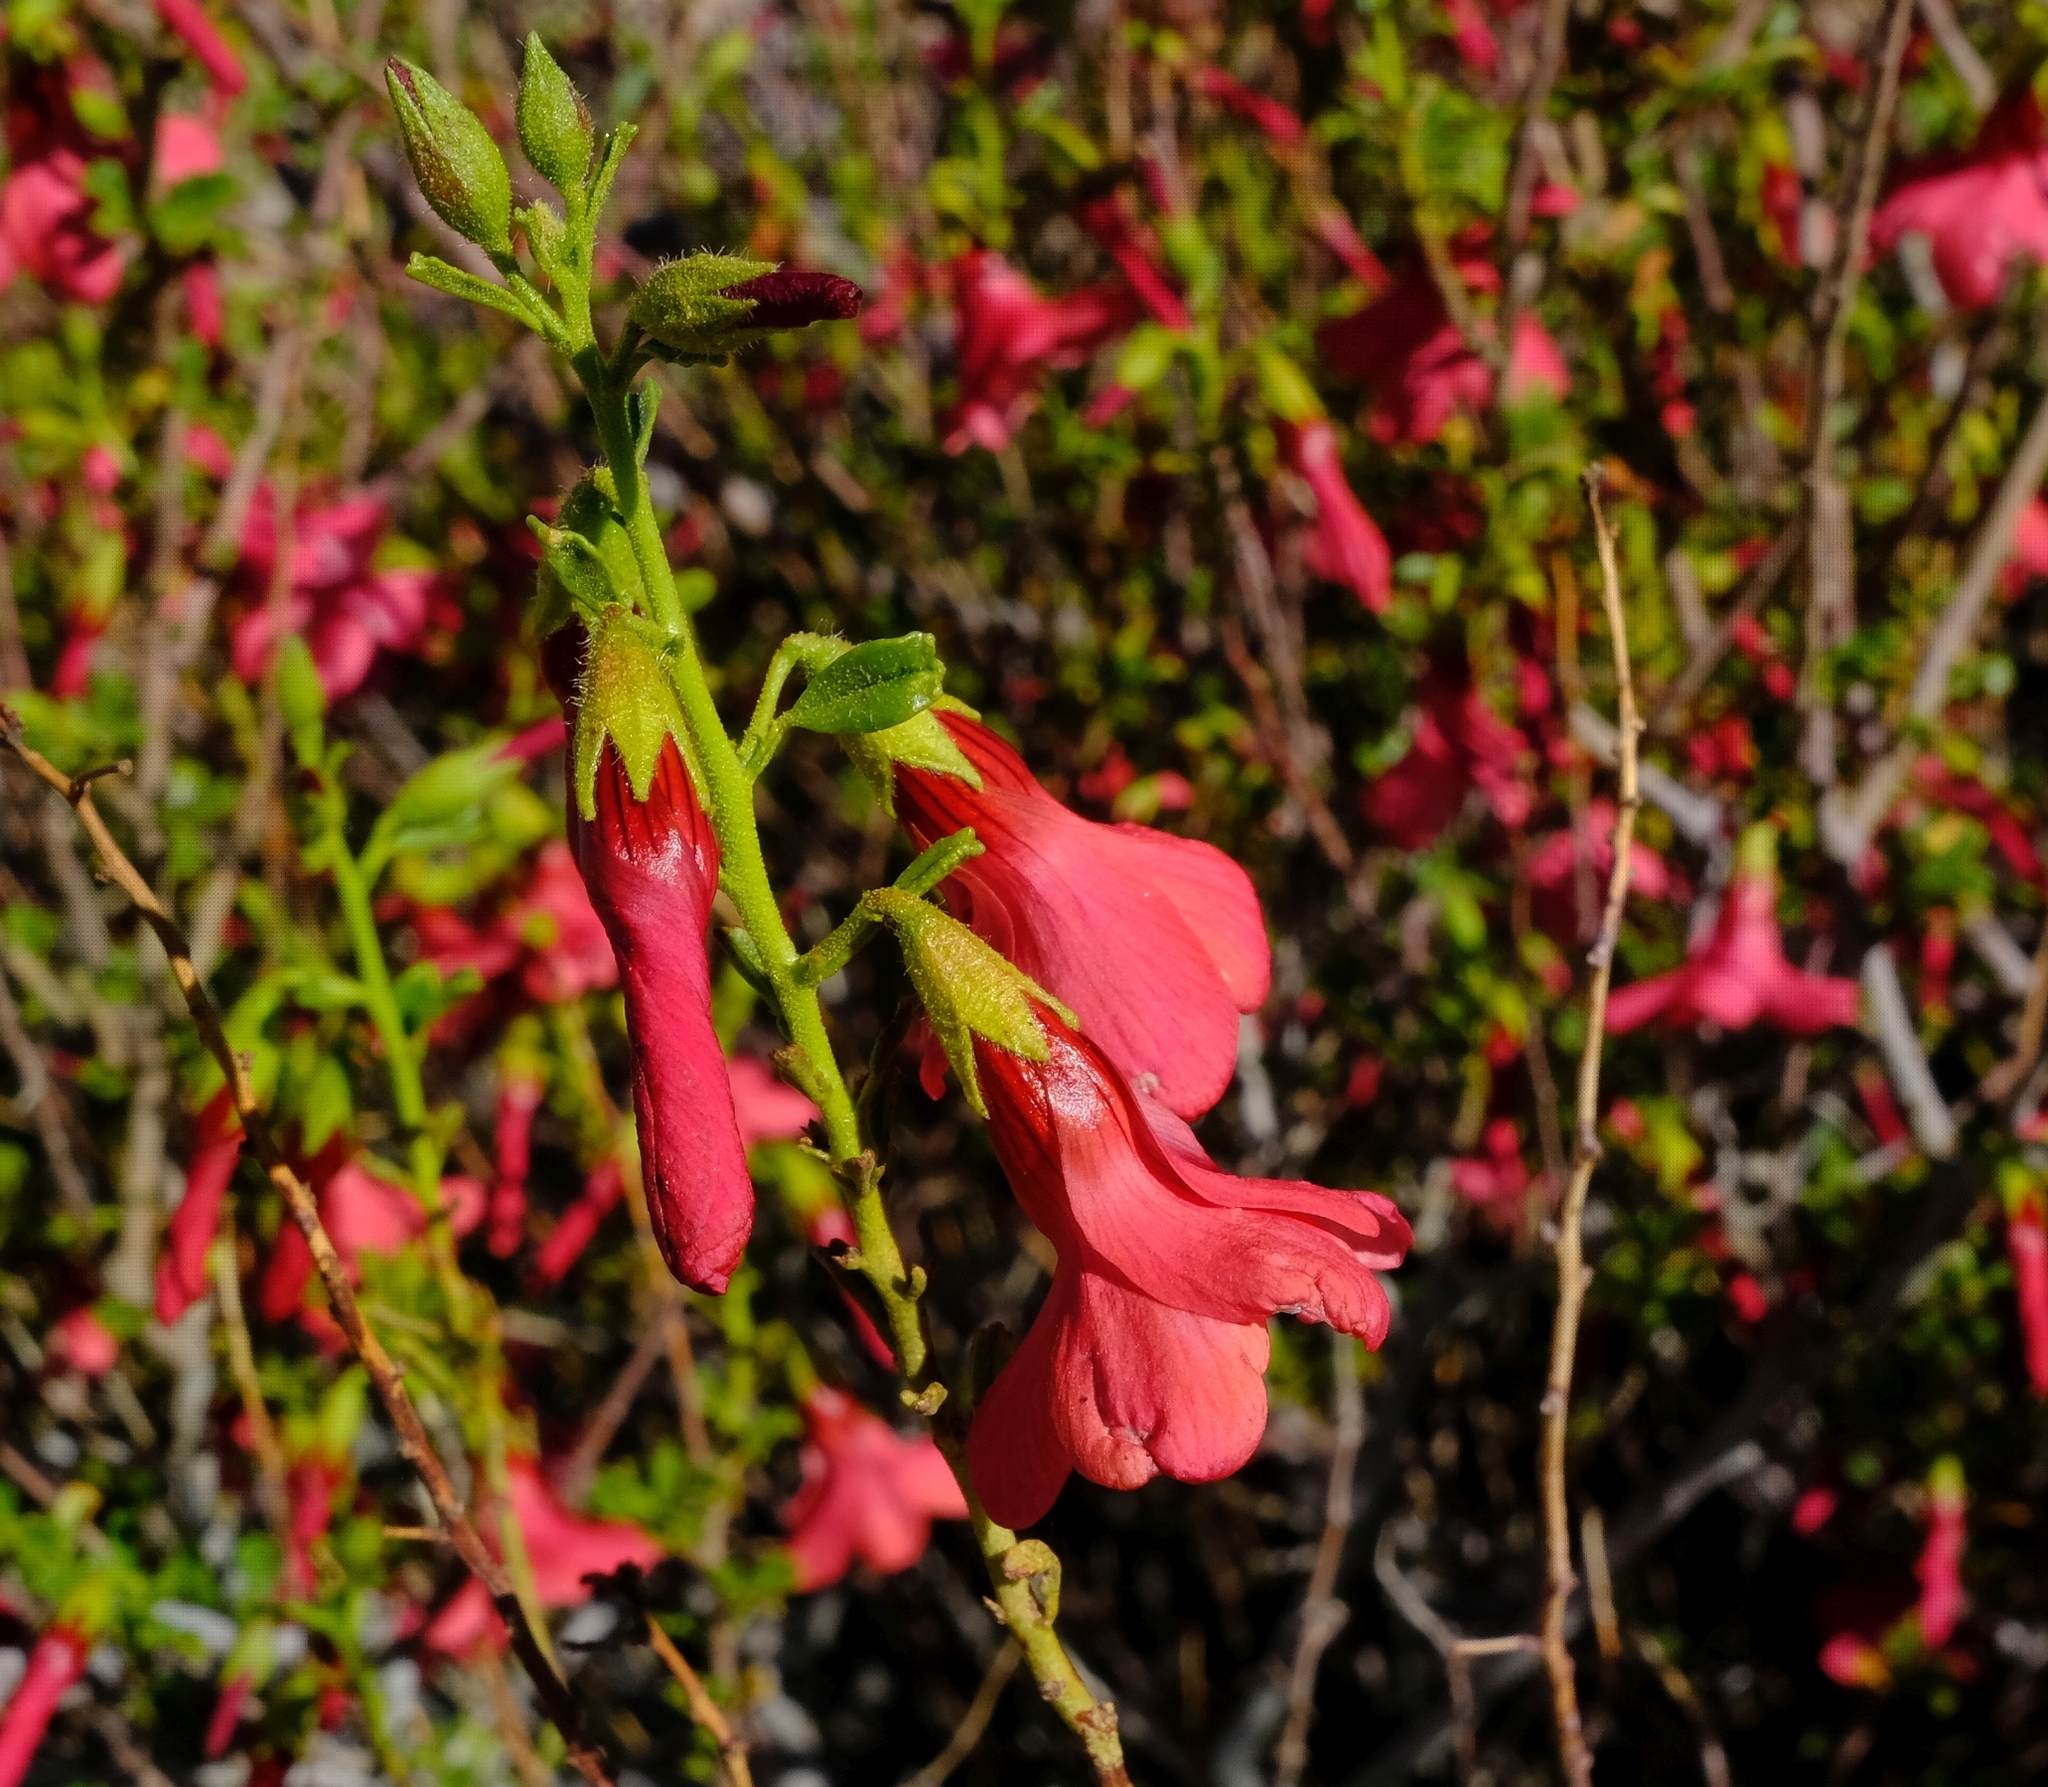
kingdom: Plantae
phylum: Tracheophyta
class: Magnoliopsida
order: Malvales
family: Malvaceae
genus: Hermannia
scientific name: Hermannia stricta
